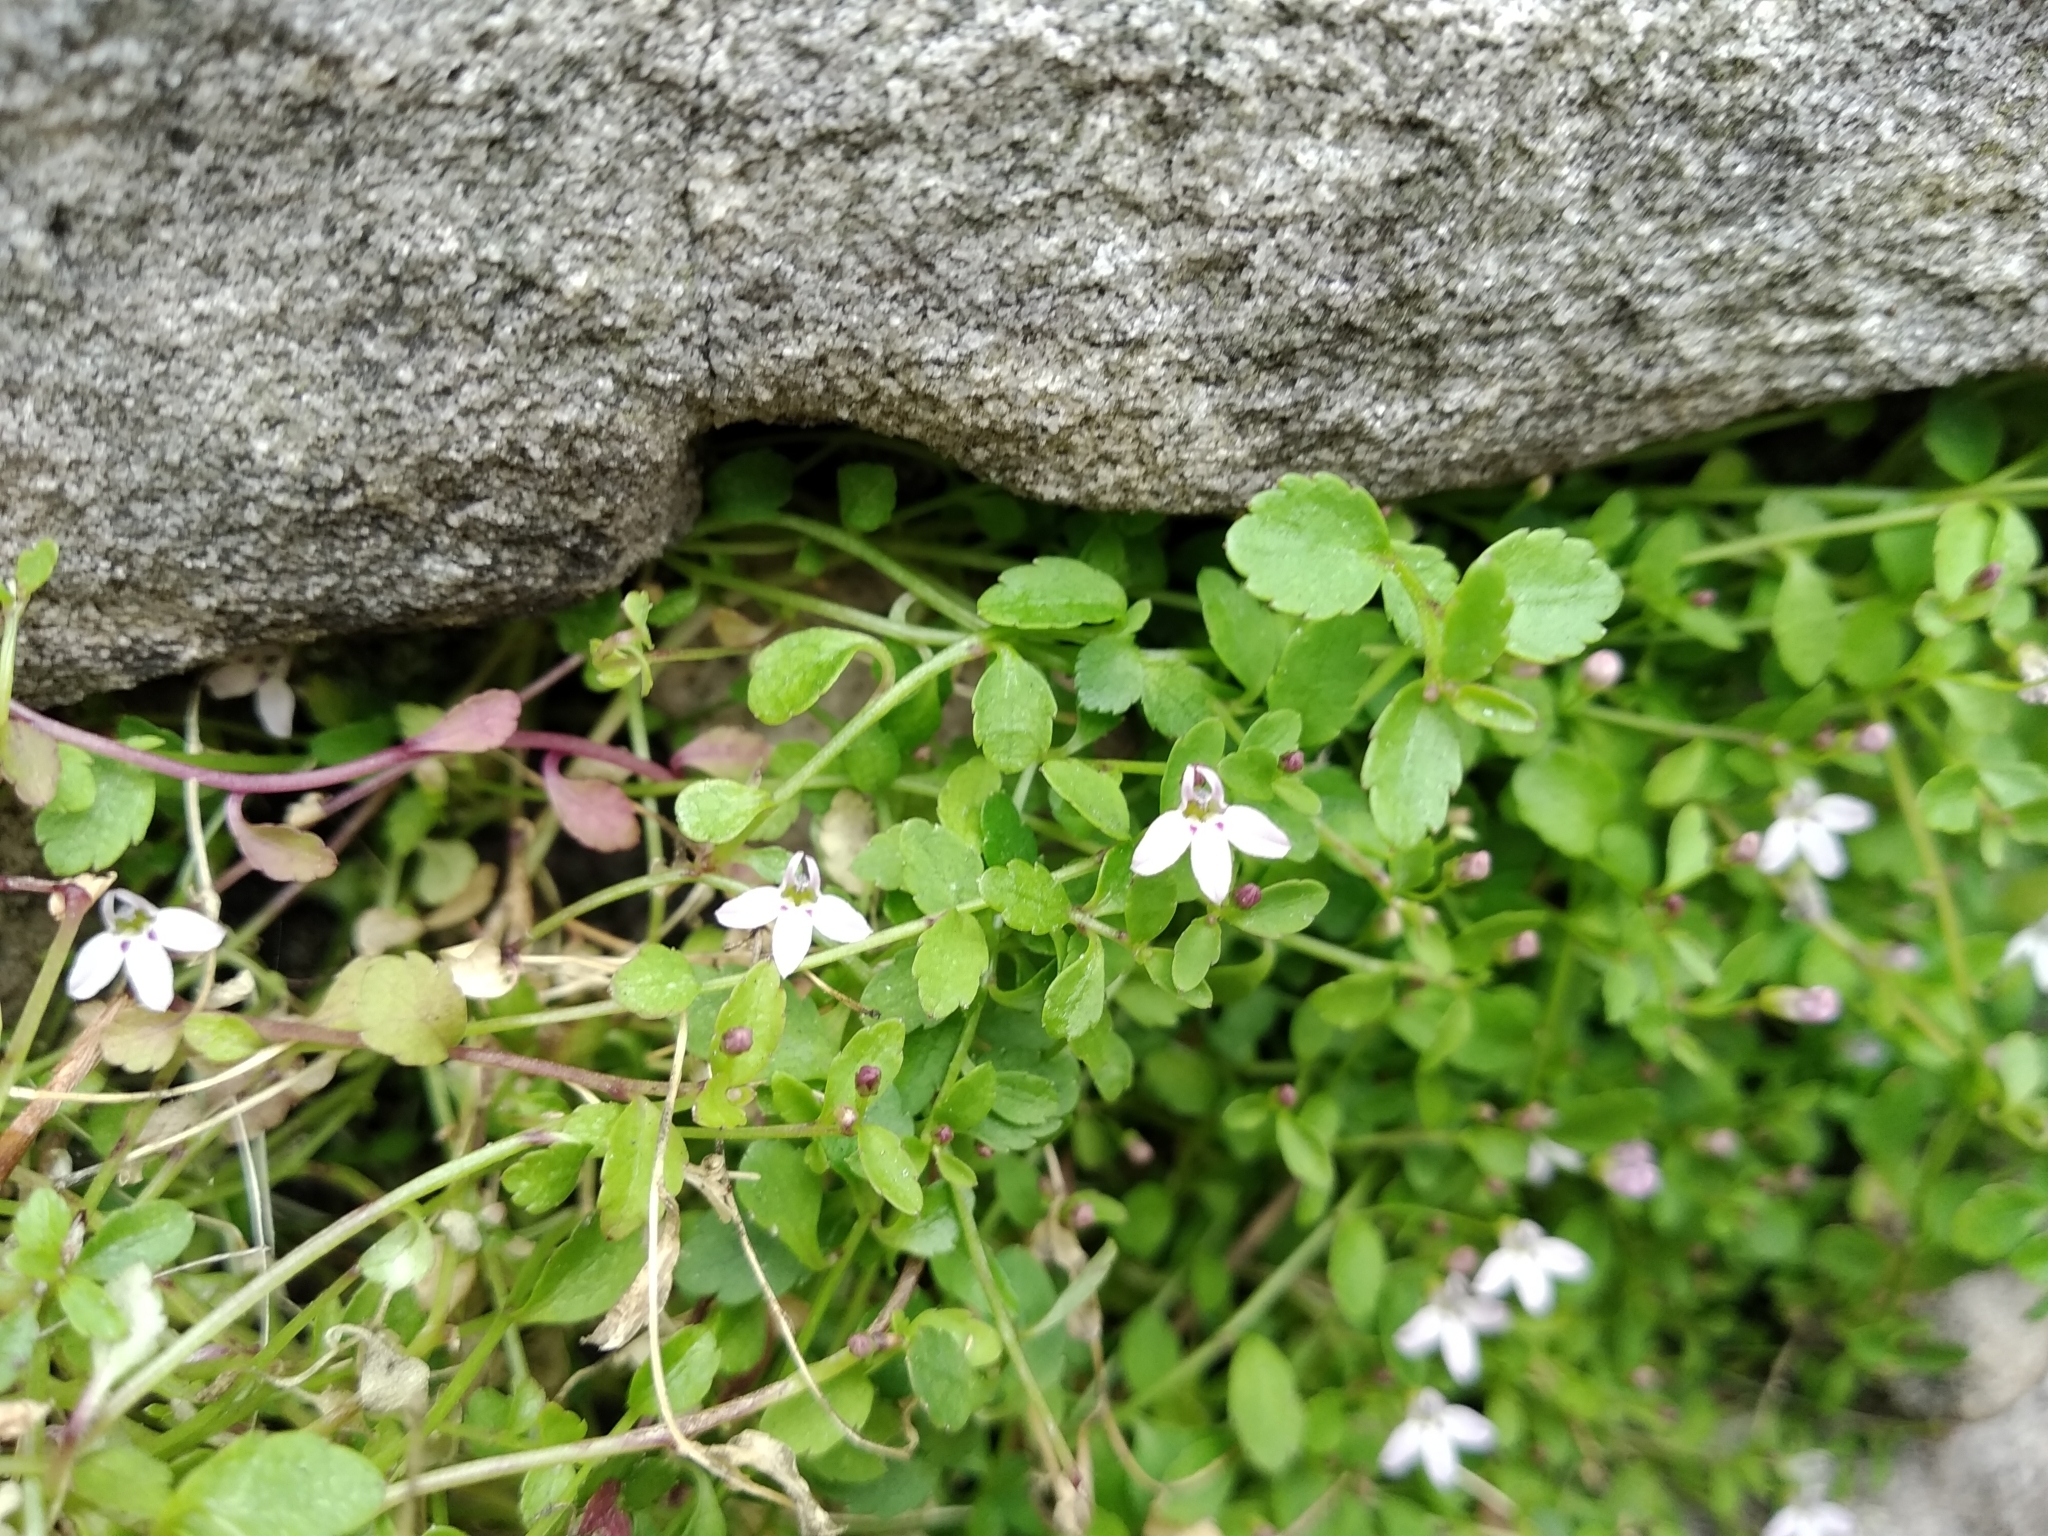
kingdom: Plantae
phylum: Tracheophyta
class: Magnoliopsida
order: Asterales
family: Campanulaceae
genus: Unigenes
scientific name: Unigenes humifusa
